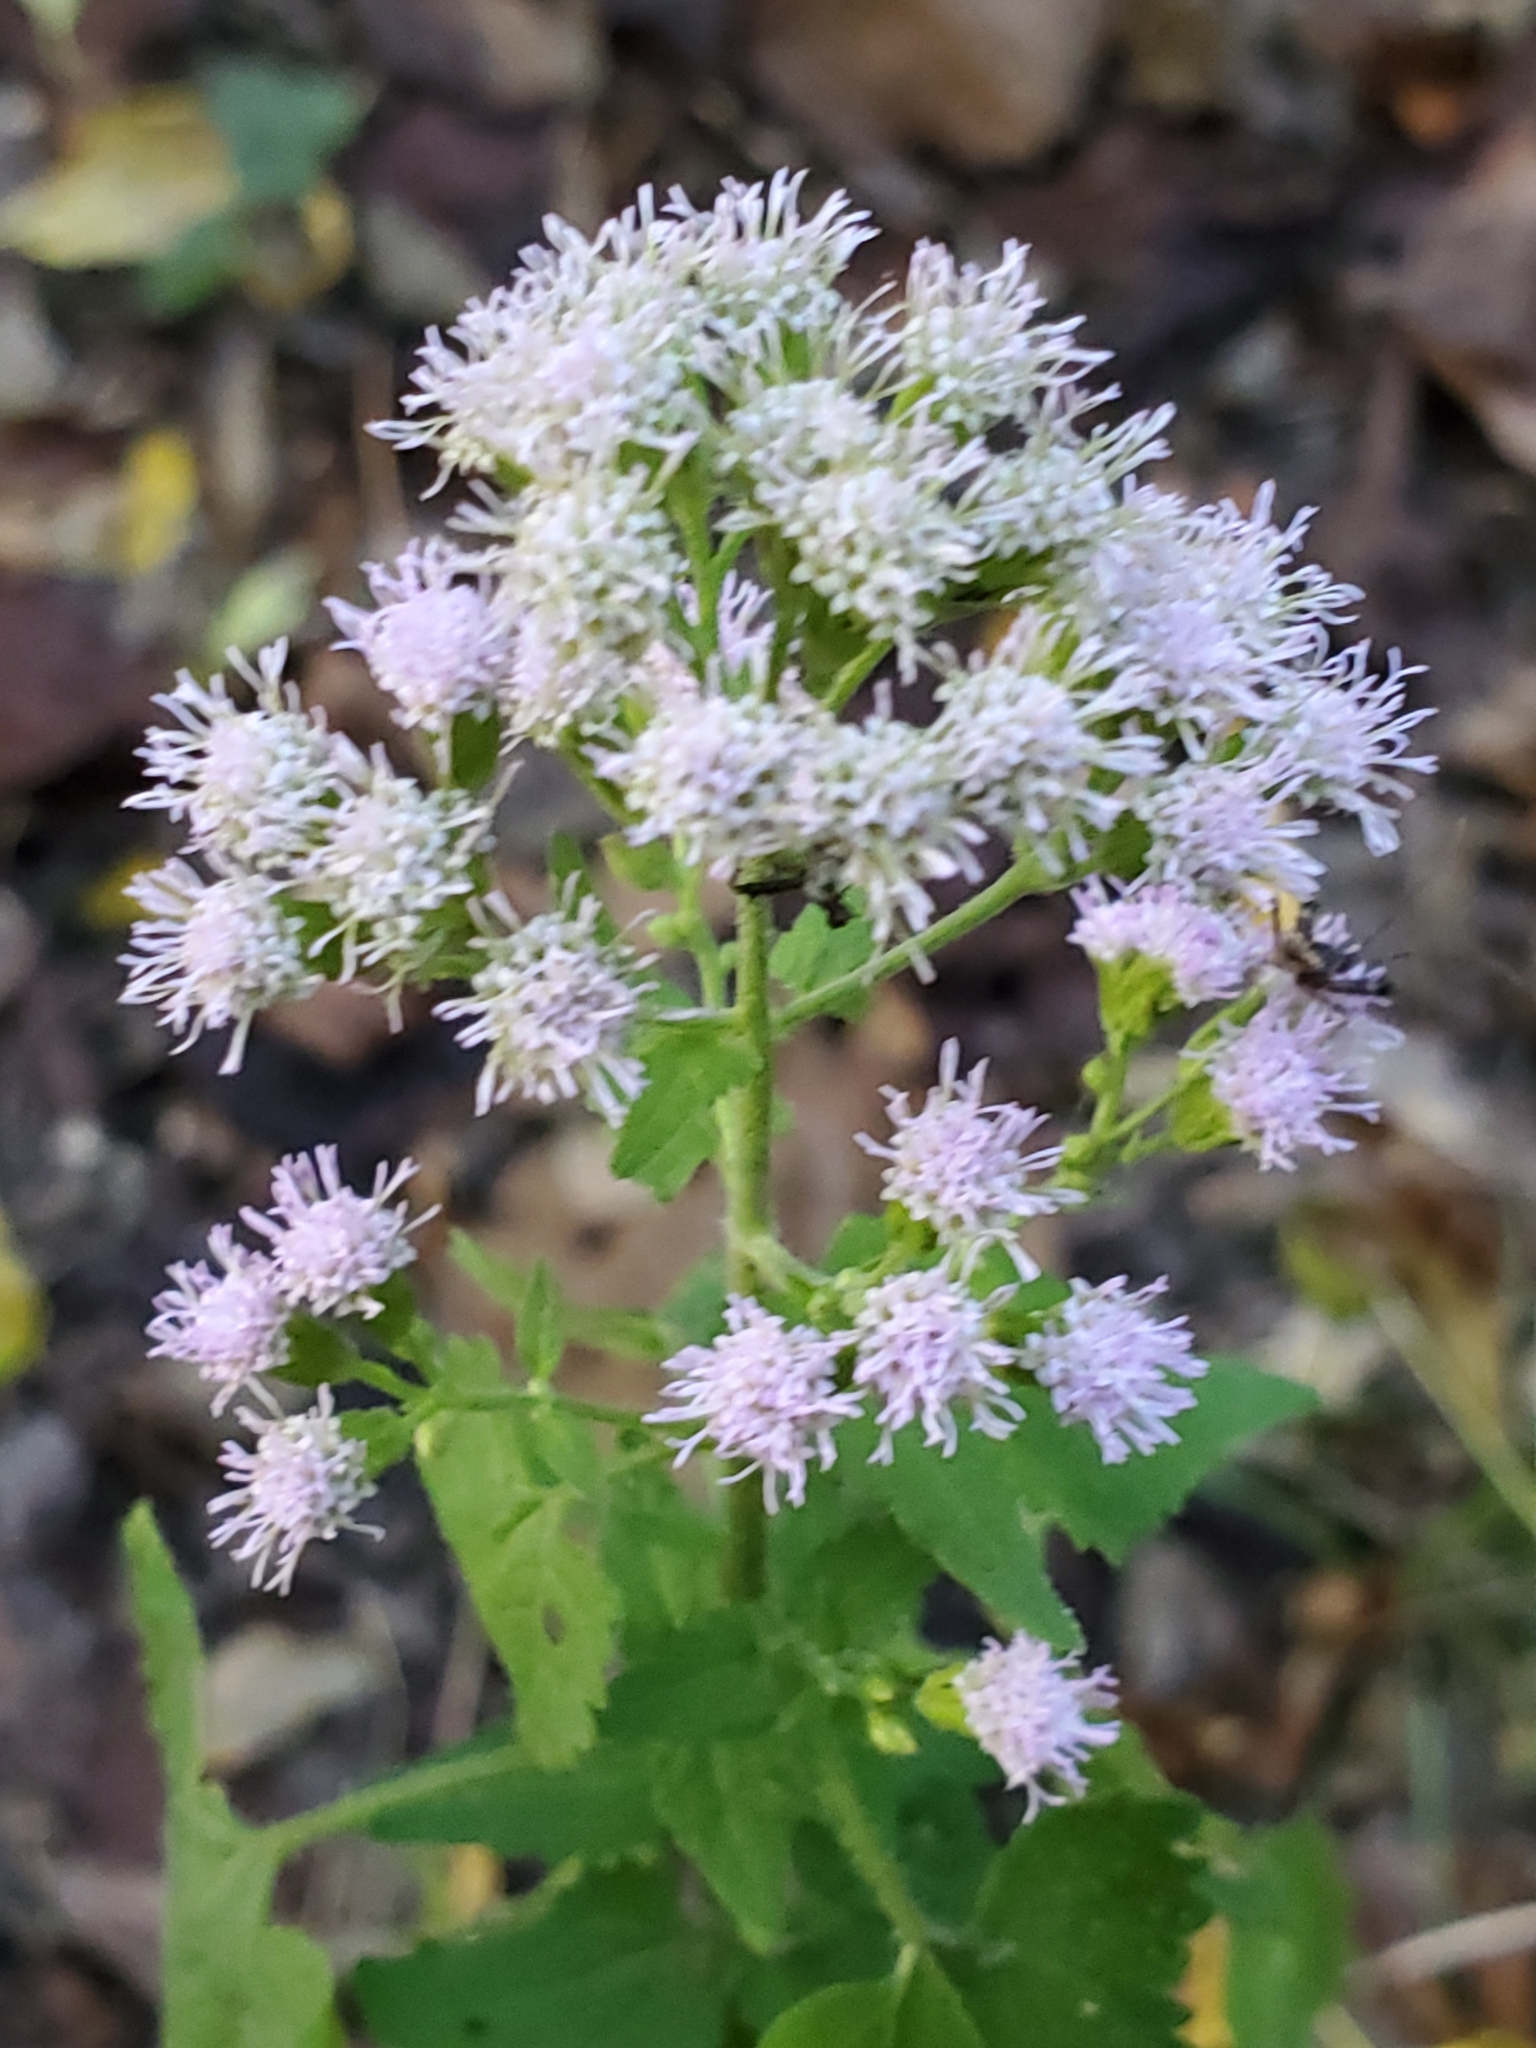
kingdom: Plantae
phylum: Tracheophyta
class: Magnoliopsida
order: Asterales
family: Asteraceae
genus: Conoclinium
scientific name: Conoclinium coelestinum
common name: Blue mistflower
